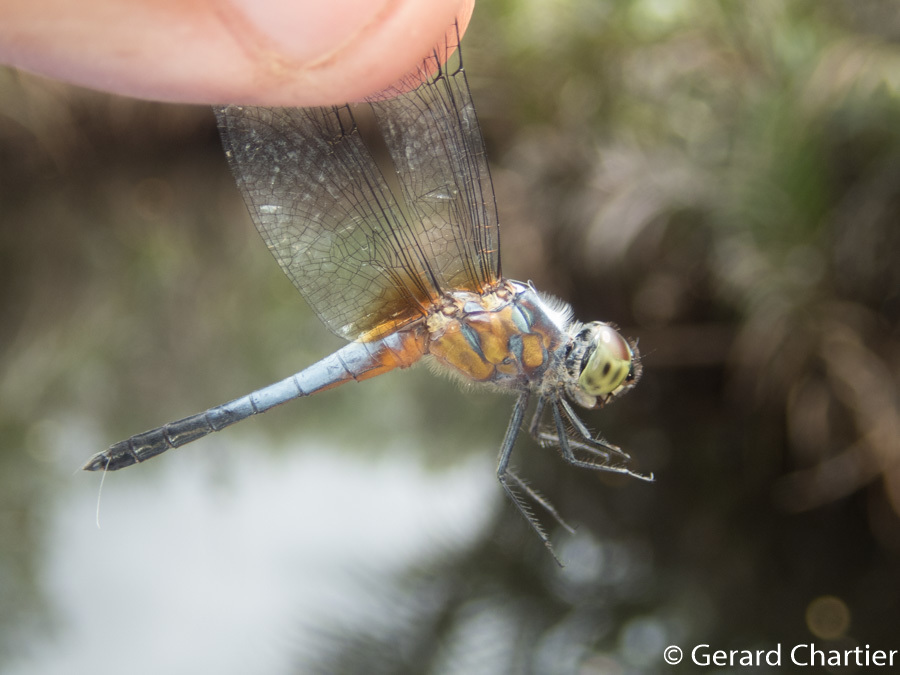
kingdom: Animalia
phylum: Arthropoda
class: Insecta
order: Odonata
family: Libellulidae
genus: Brachydiplax
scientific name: Brachydiplax chalybea
